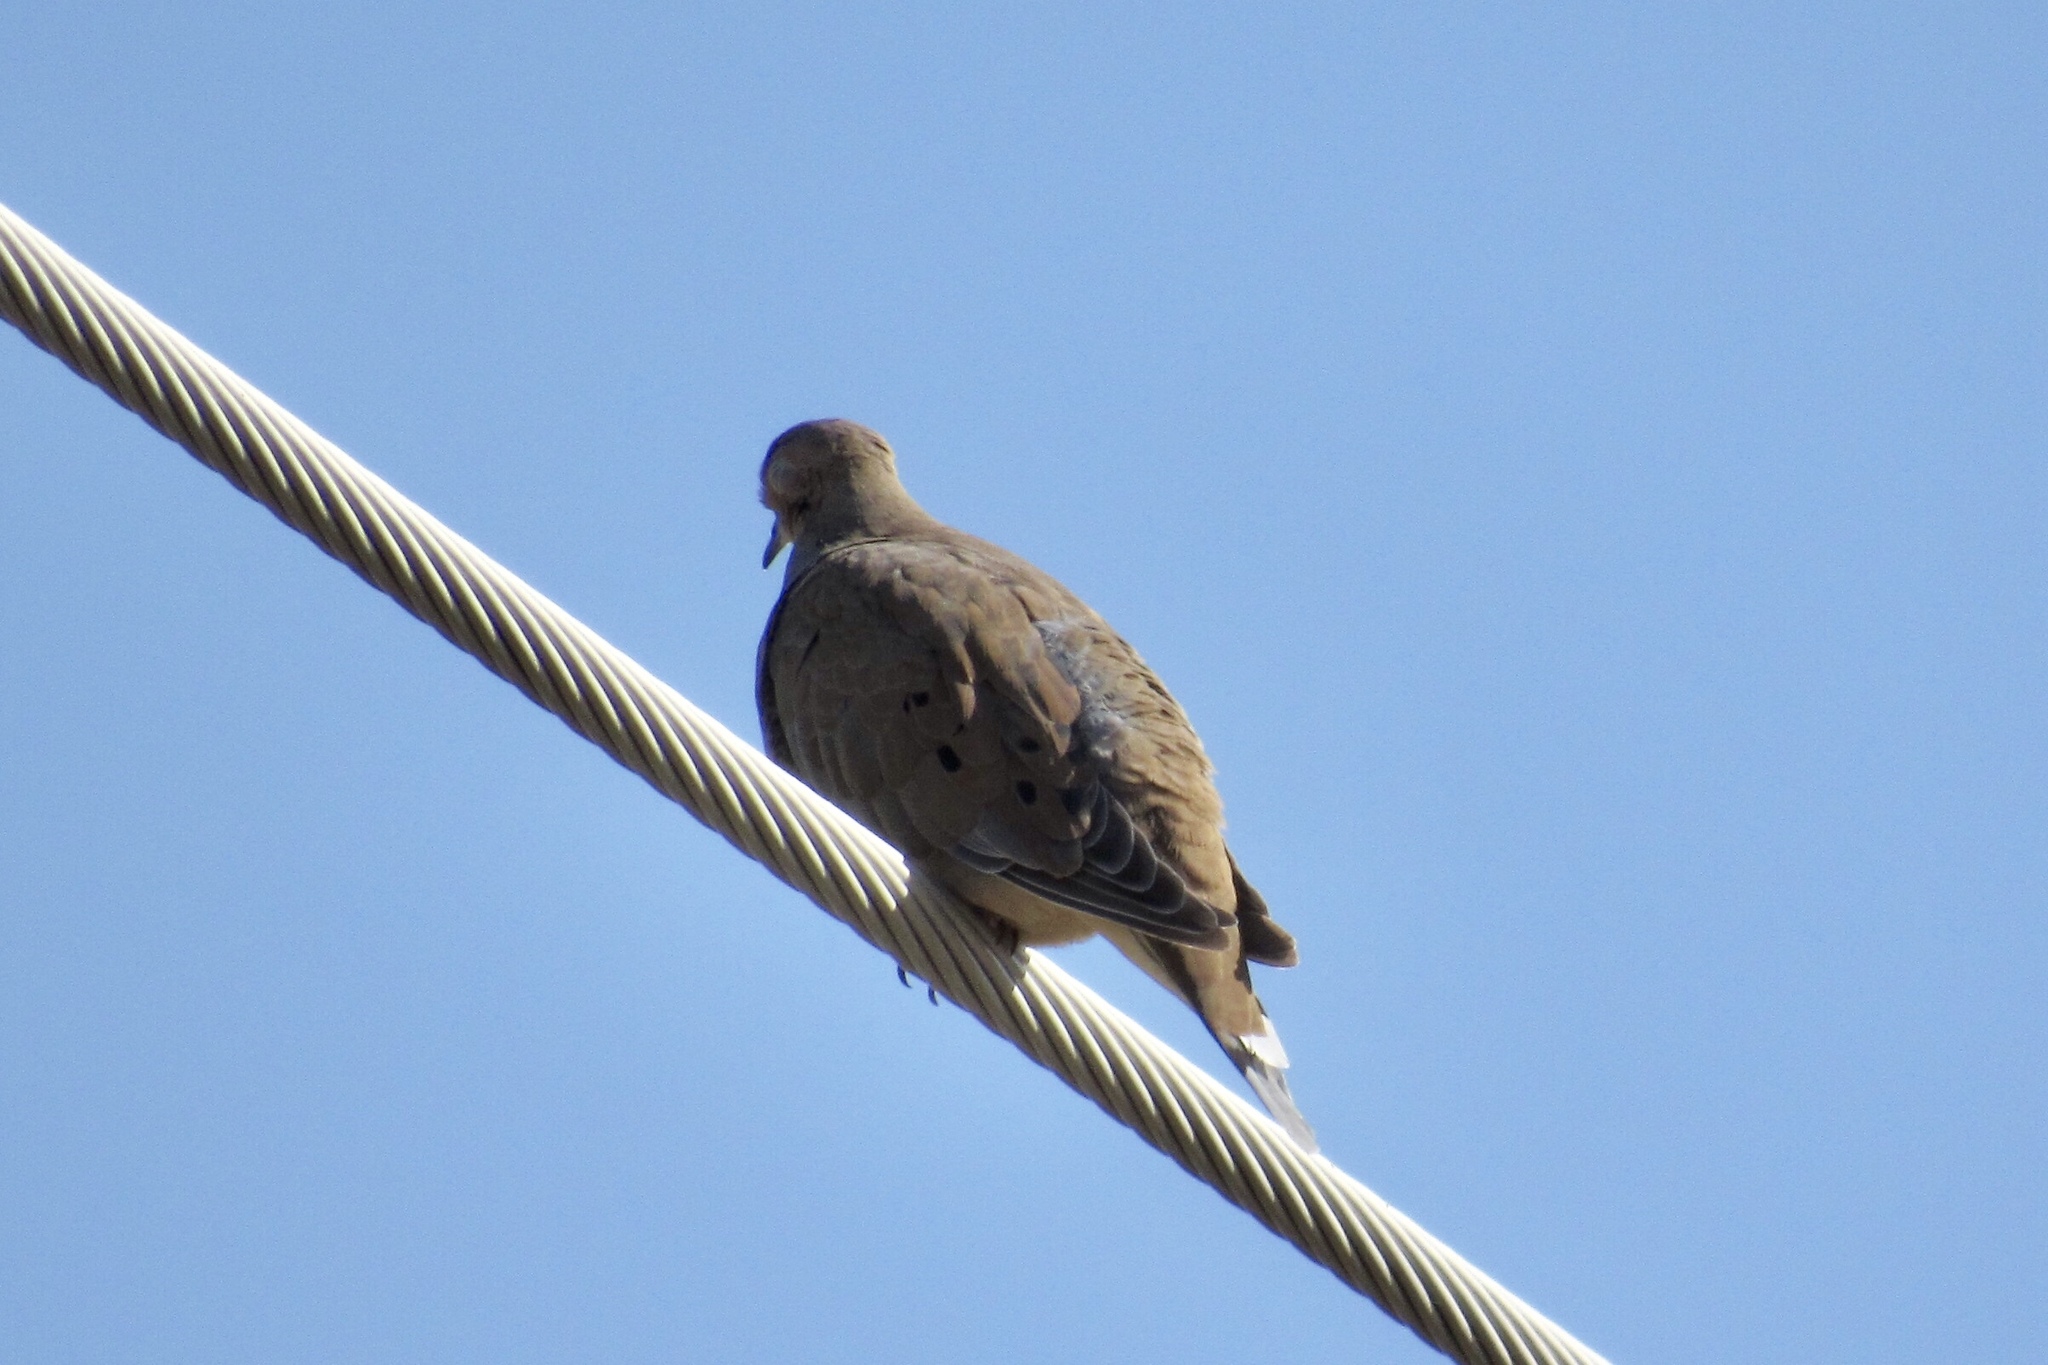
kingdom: Animalia
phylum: Chordata
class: Aves
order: Columbiformes
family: Columbidae
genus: Zenaida
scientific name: Zenaida macroura
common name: Mourning dove
